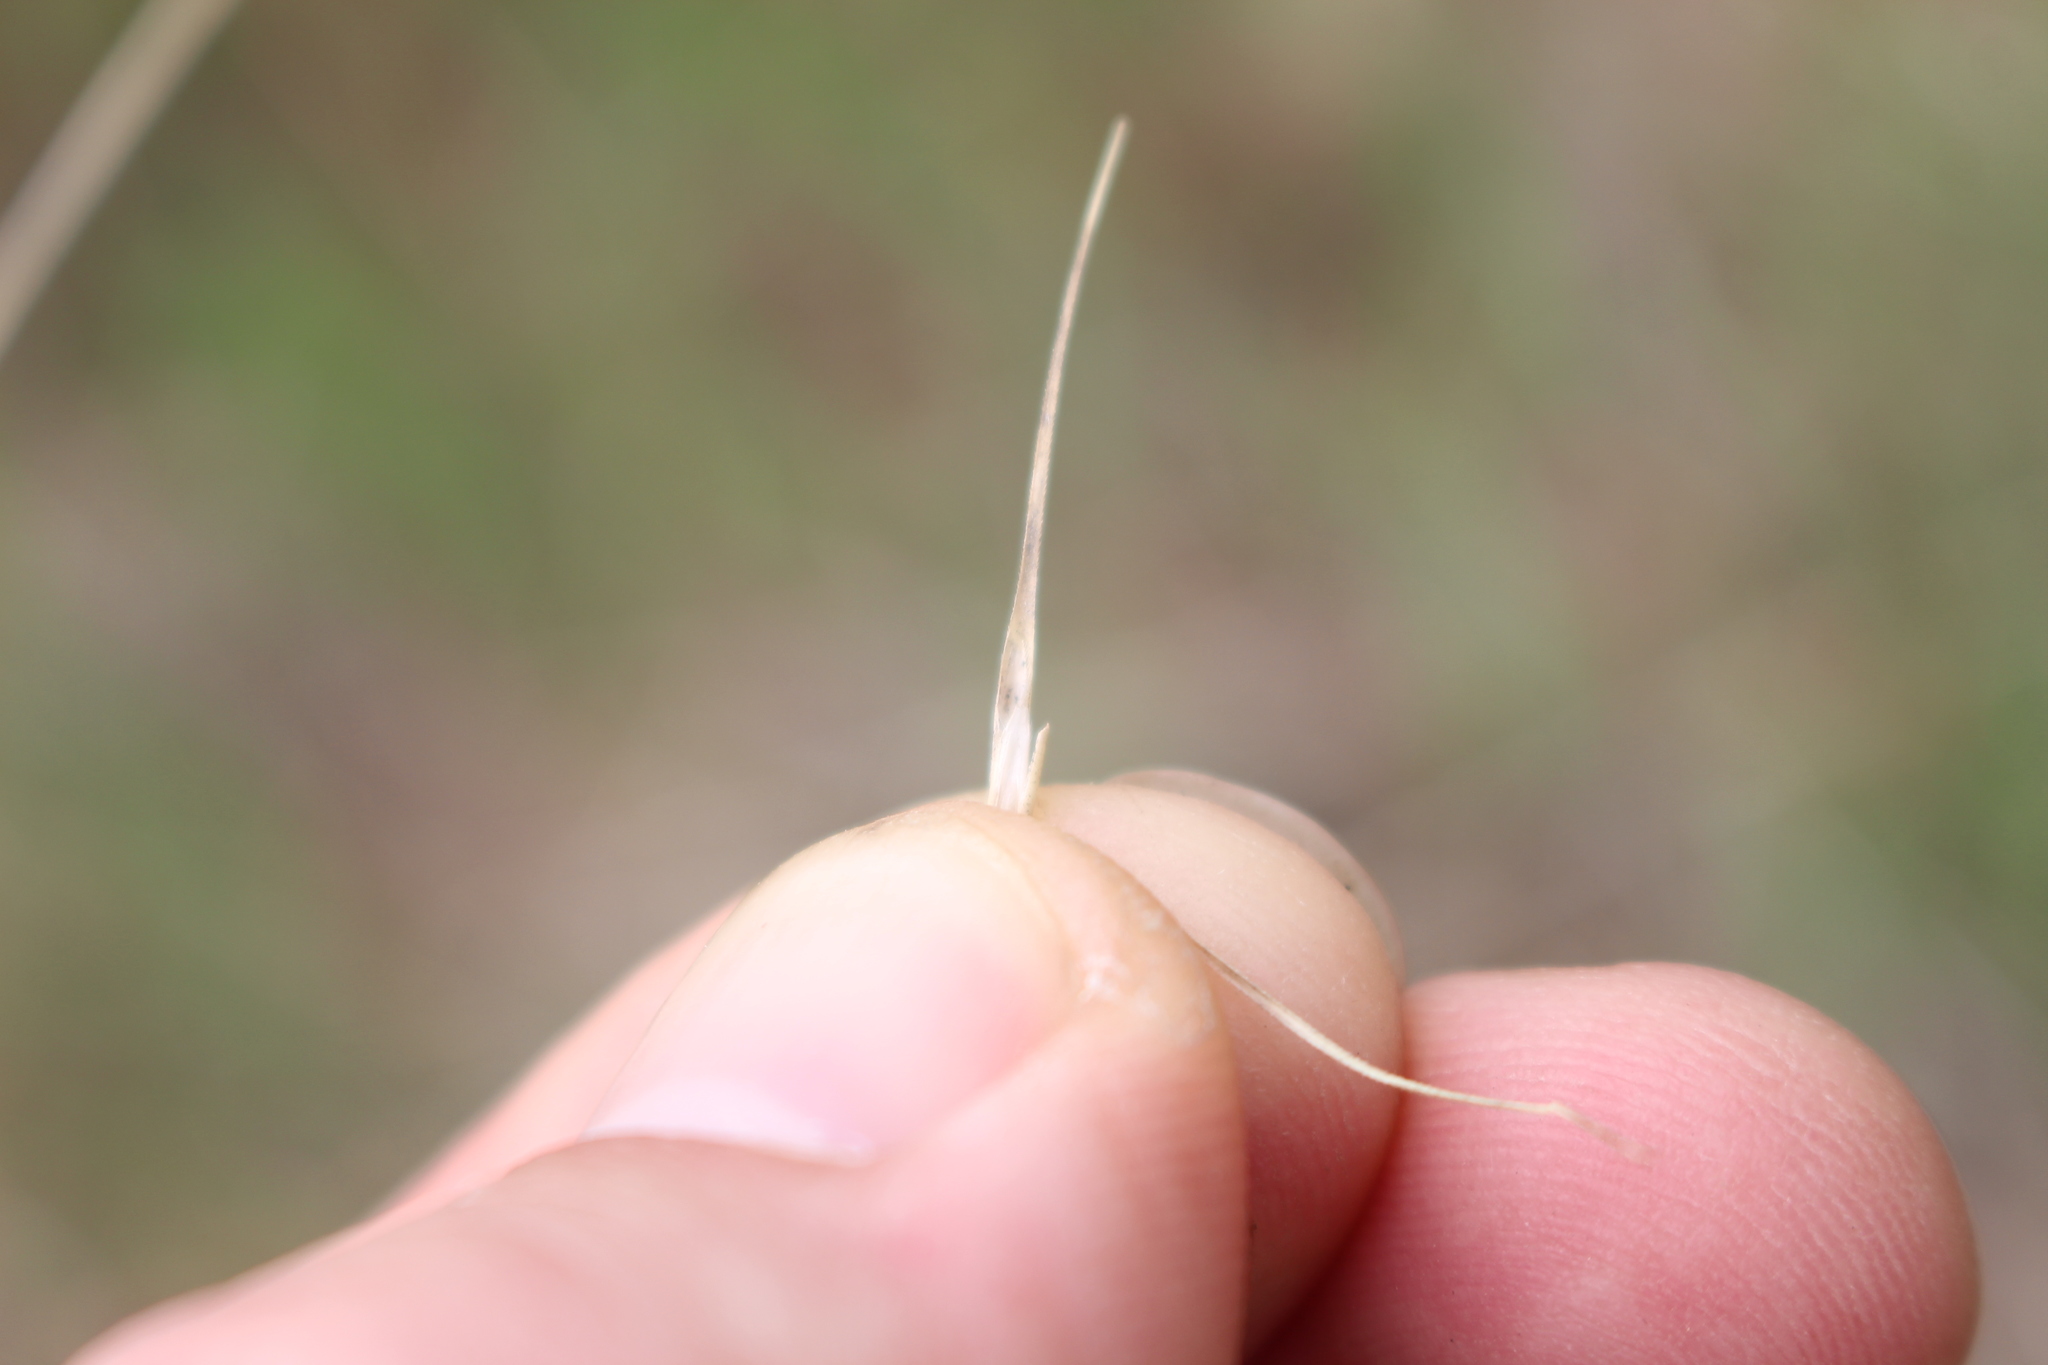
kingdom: Plantae
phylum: Tracheophyta
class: Liliopsida
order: Poales
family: Poaceae
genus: Anthosachne
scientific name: Anthosachne scabra
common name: Common wheatgrass
